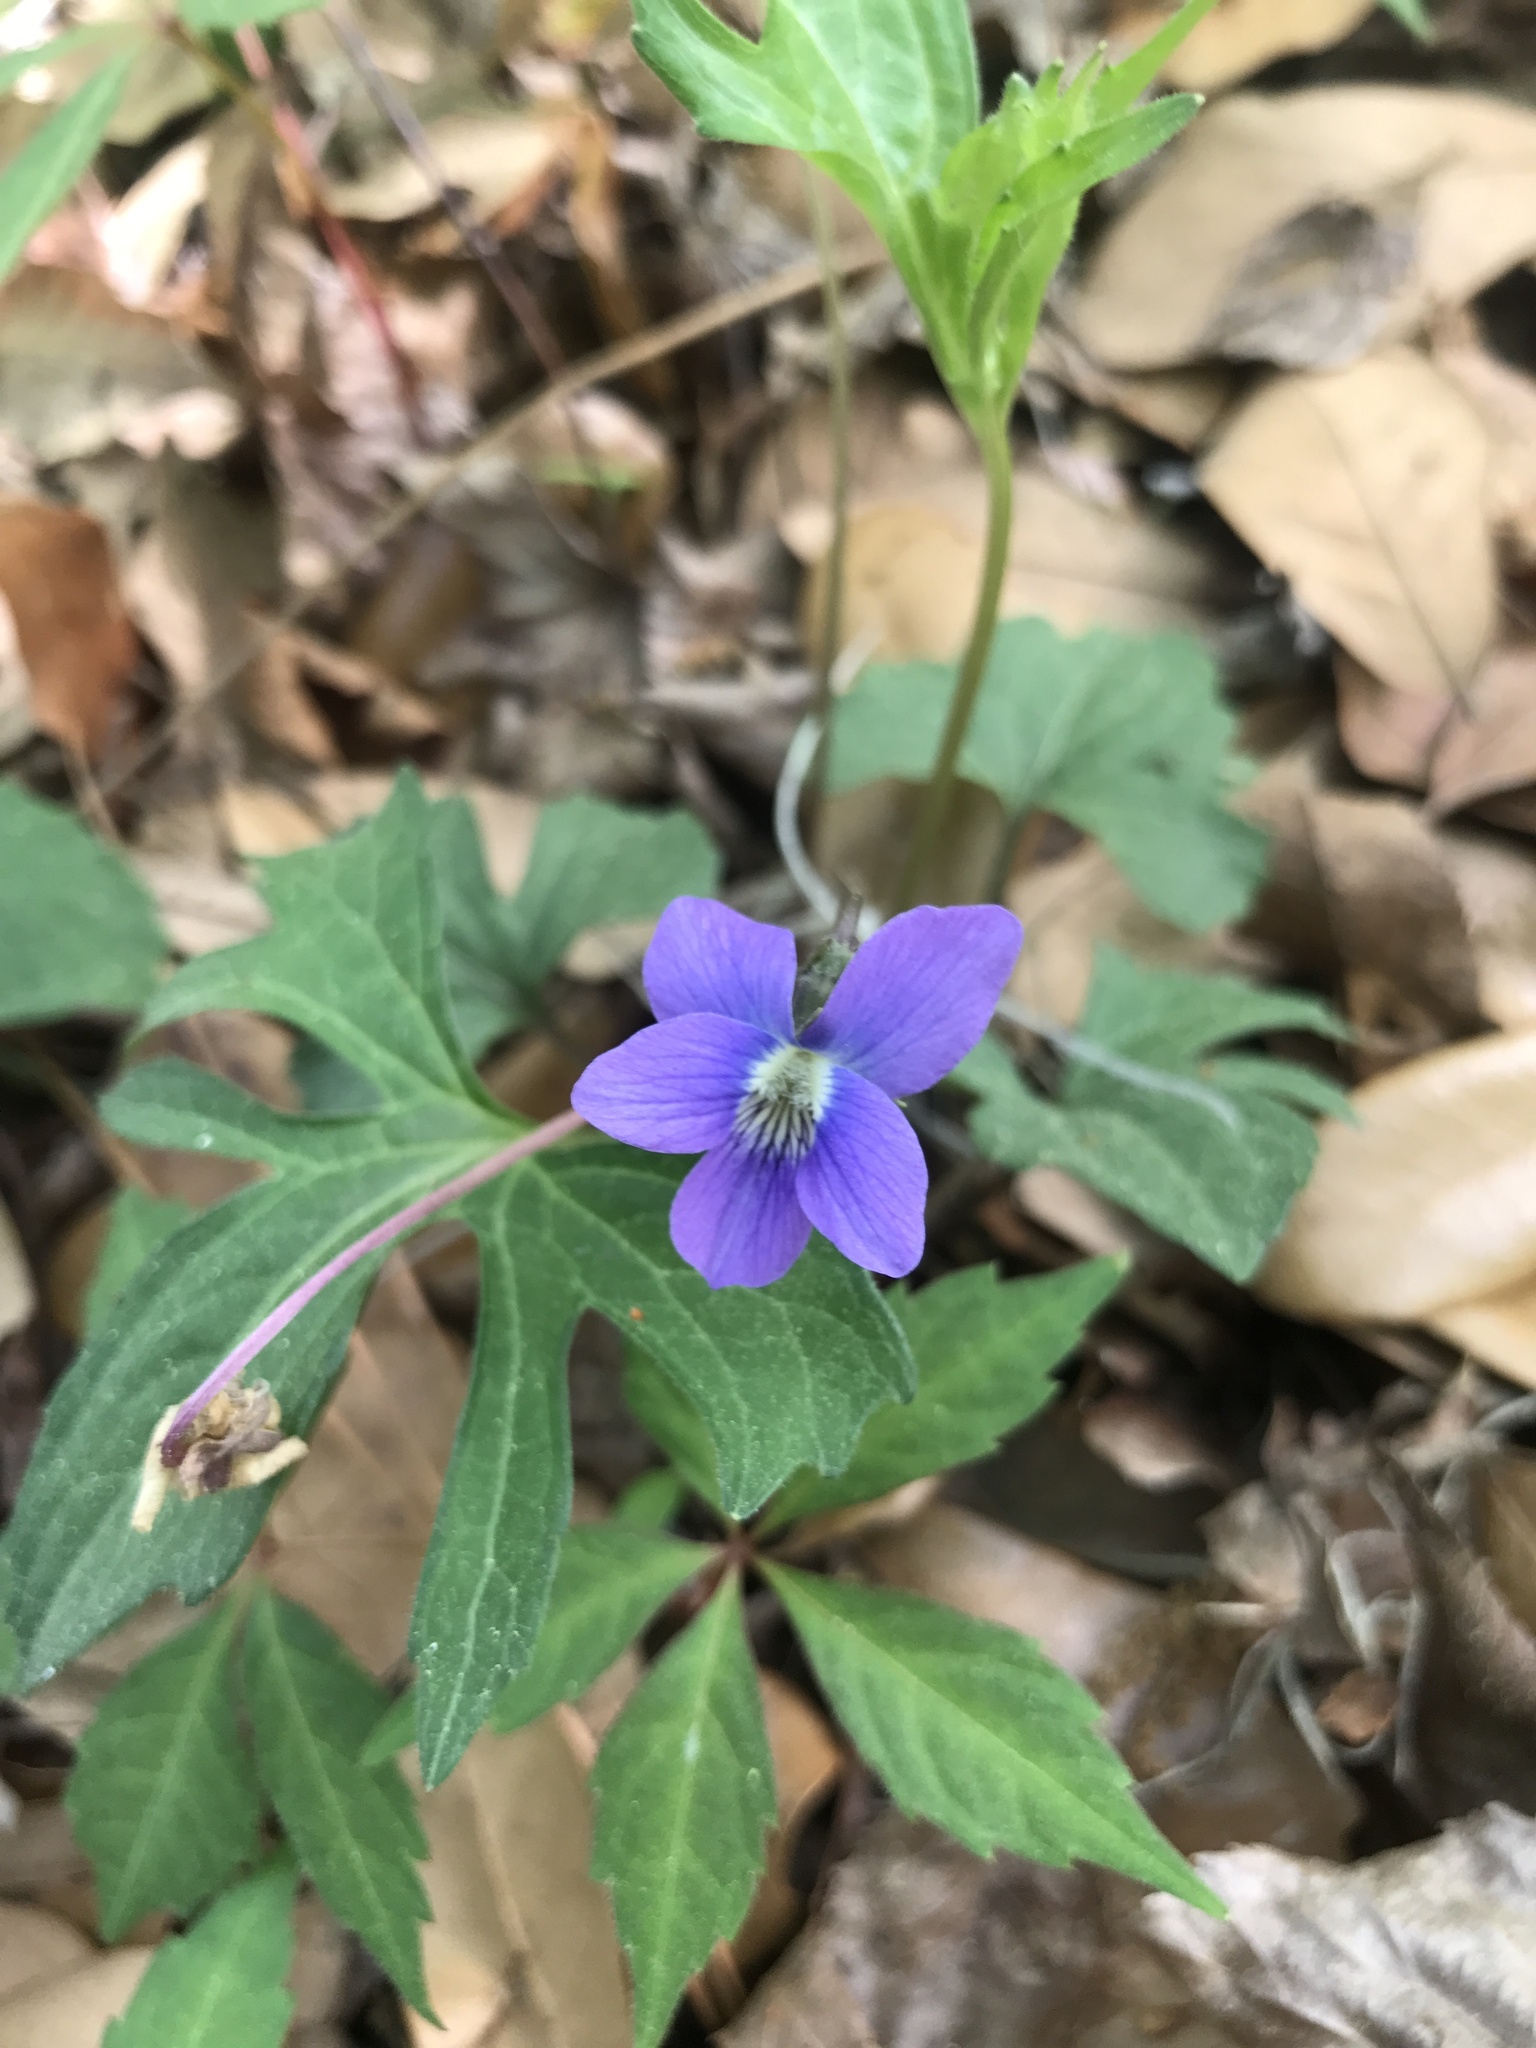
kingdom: Plantae
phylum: Tracheophyta
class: Magnoliopsida
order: Malpighiales
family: Violaceae
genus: Viola
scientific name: Viola palmata
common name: Early blue violet
